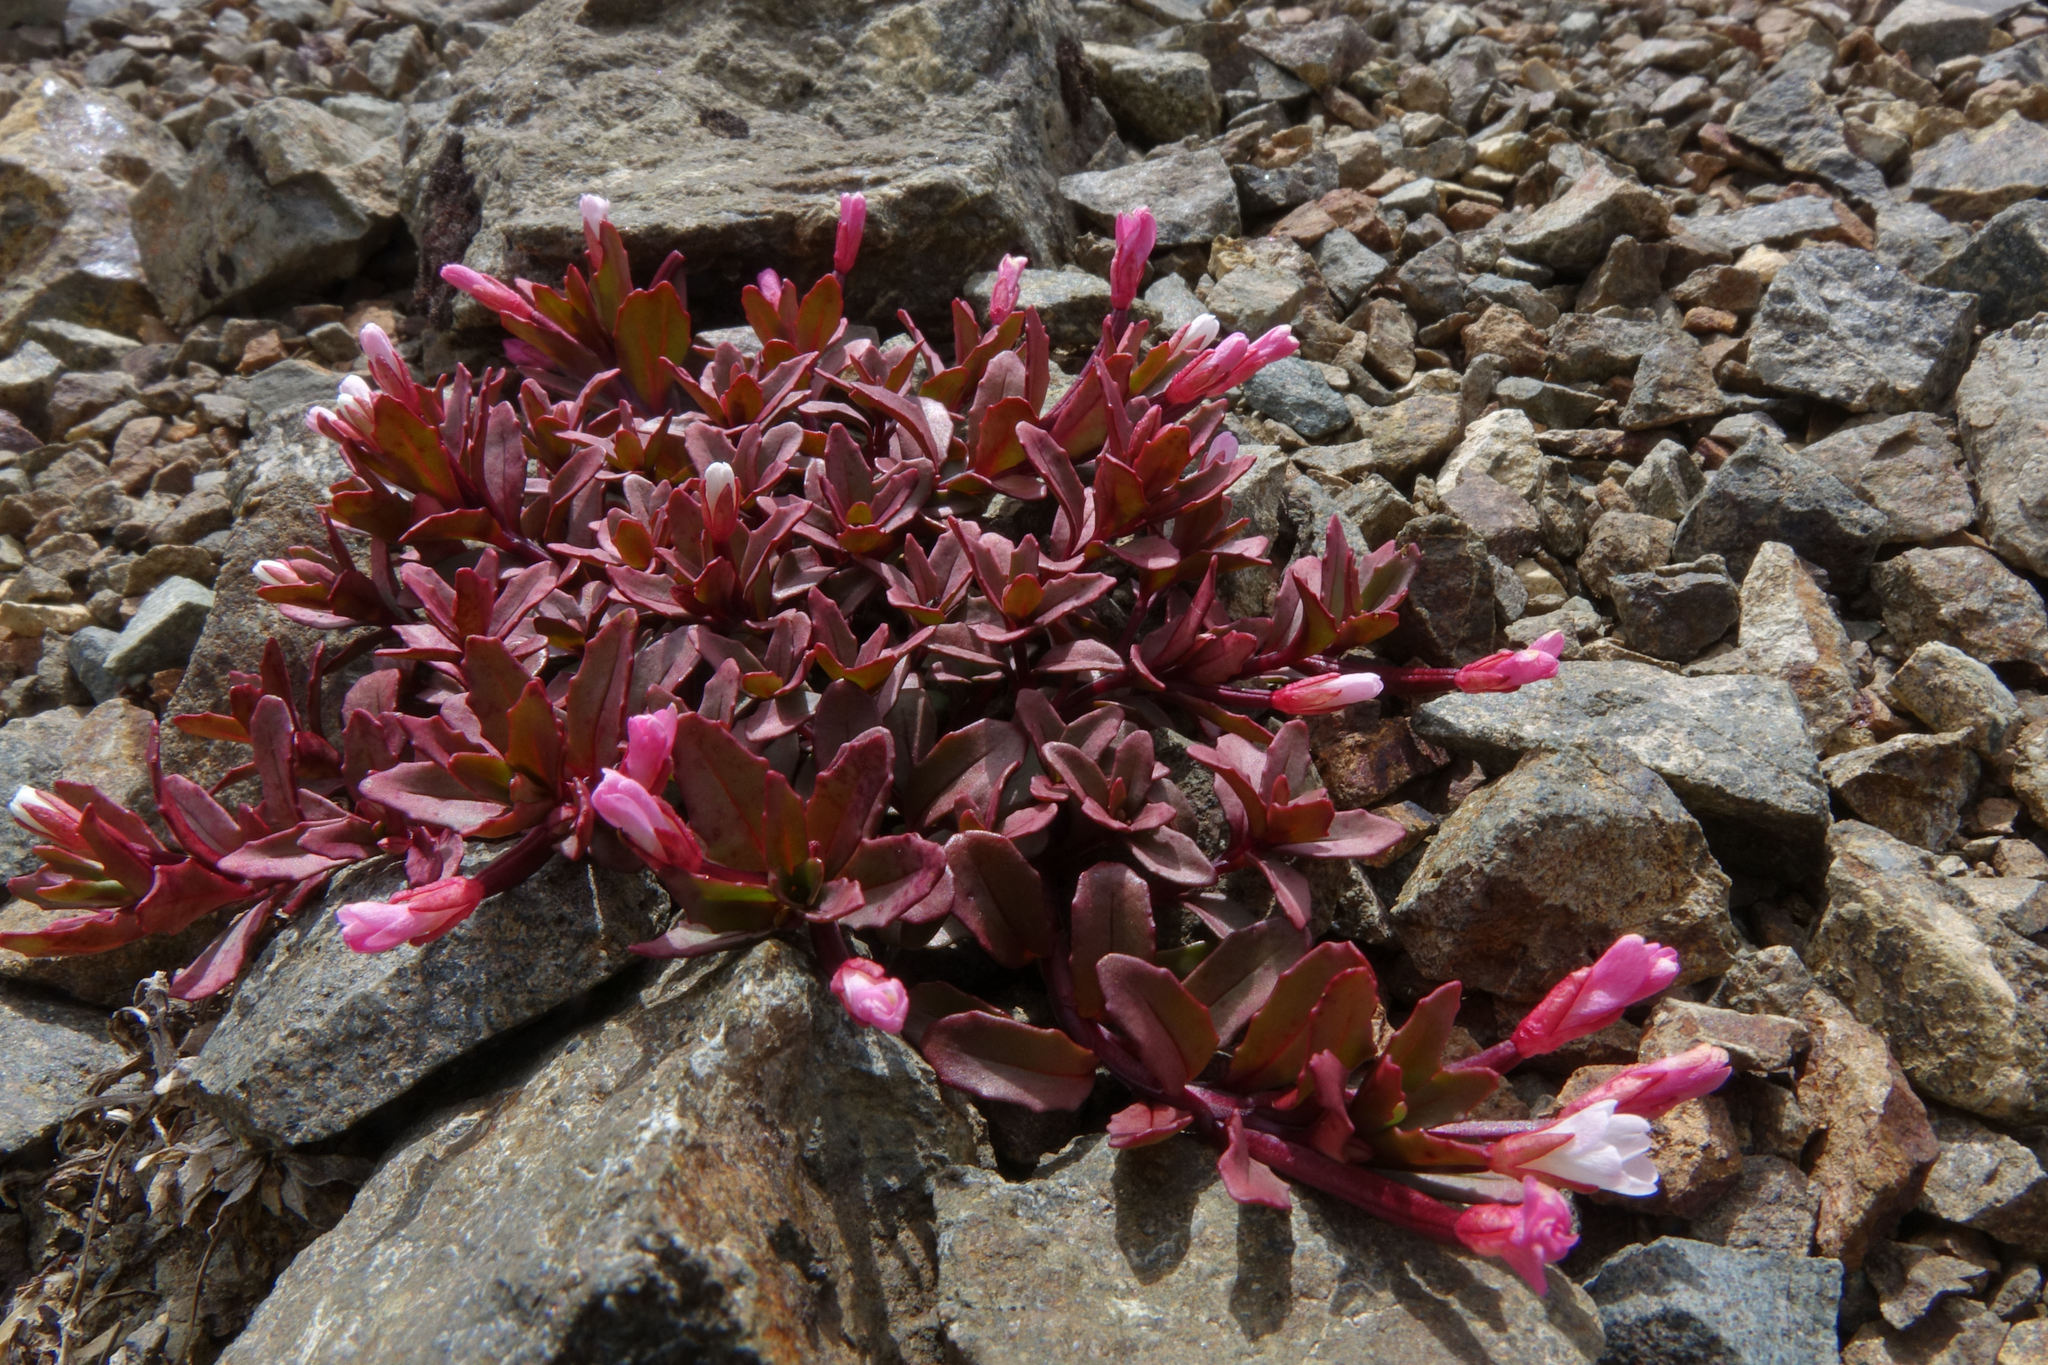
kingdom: Plantae
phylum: Tracheophyta
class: Magnoliopsida
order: Myrtales
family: Onagraceae
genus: Epilobium
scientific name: Epilobium porphyrium
